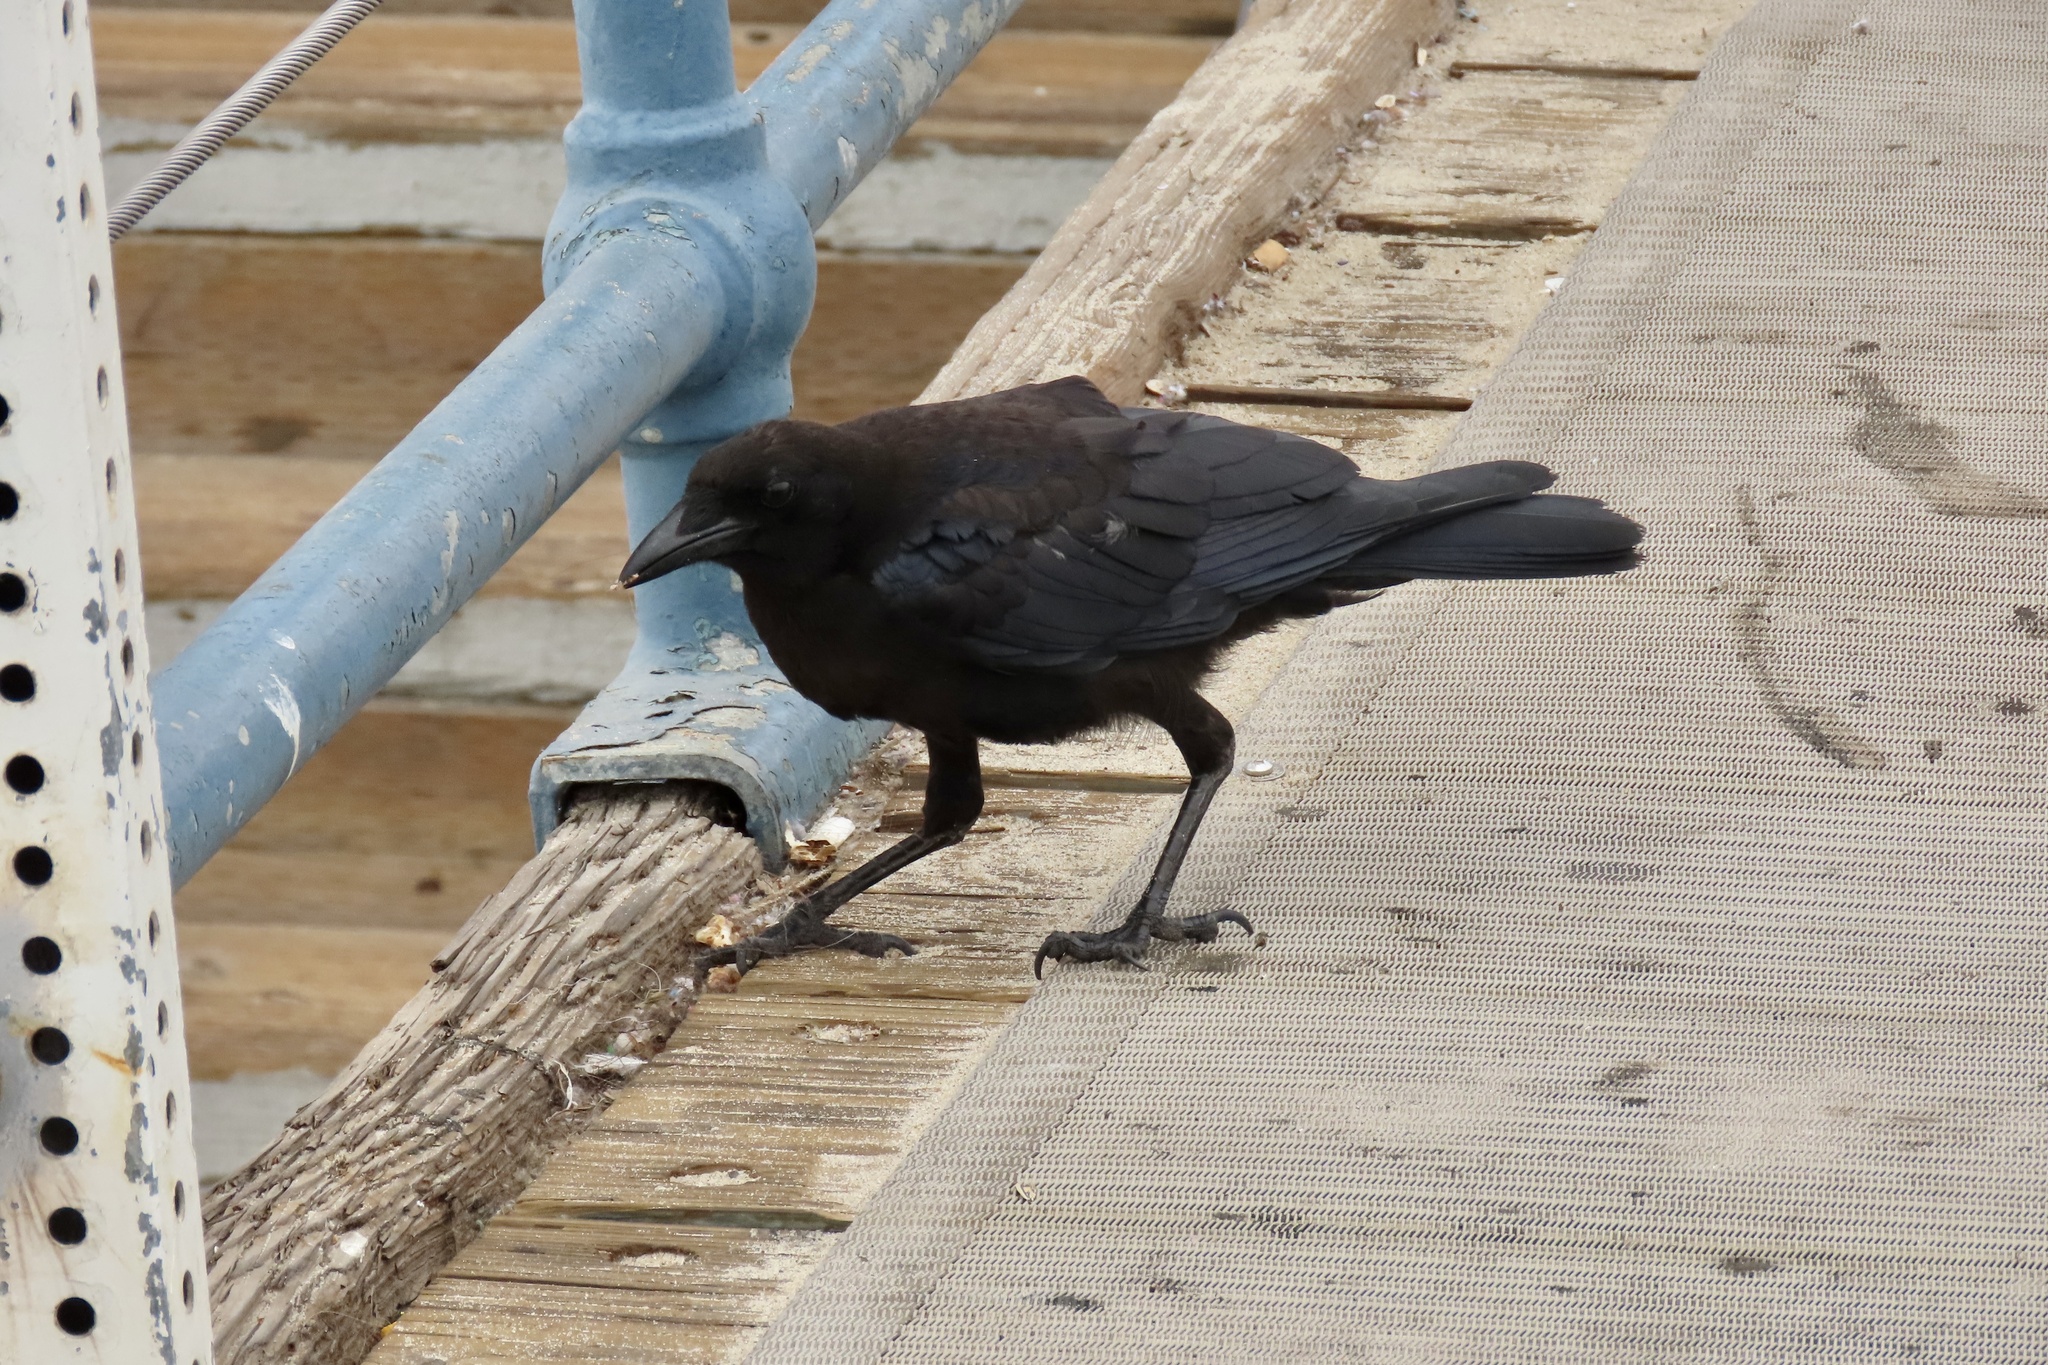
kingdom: Animalia
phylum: Chordata
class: Aves
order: Passeriformes
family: Corvidae
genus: Corvus
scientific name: Corvus brachyrhynchos
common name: American crow
